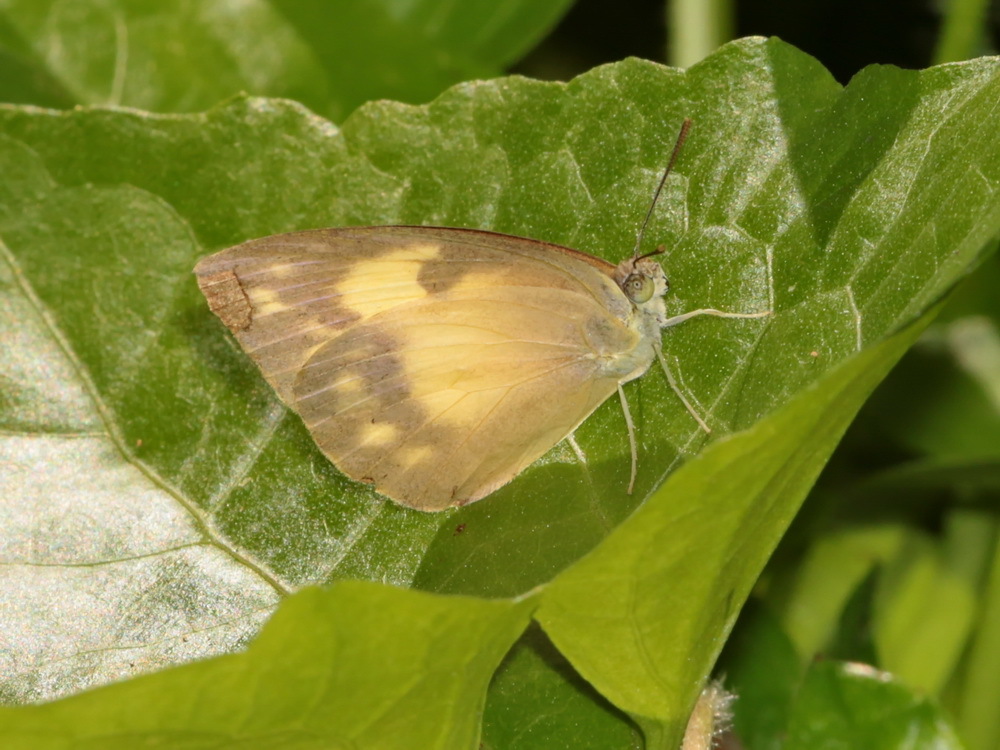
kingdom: Animalia
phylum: Arthropoda
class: Insecta
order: Lepidoptera
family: Pieridae
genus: Catopsilia
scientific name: Catopsilia pomona
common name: Common emigrant
